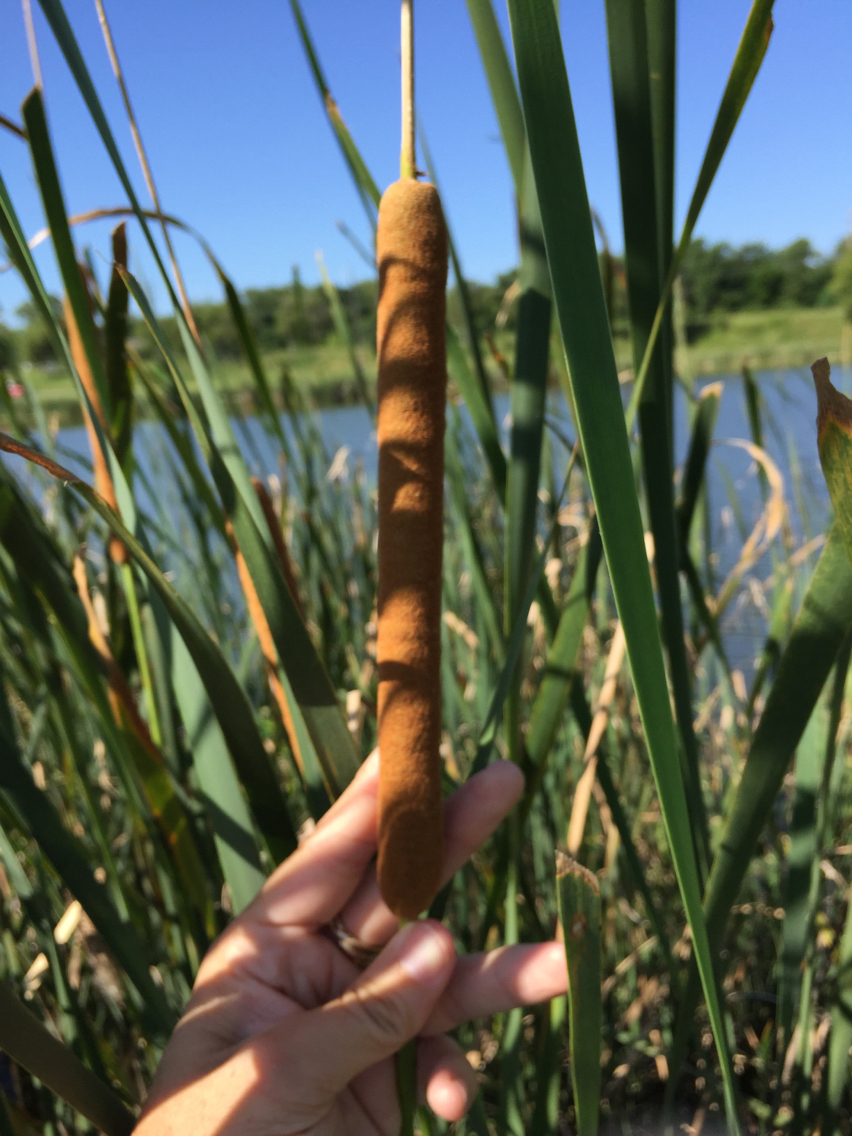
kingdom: Plantae
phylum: Tracheophyta
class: Liliopsida
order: Poales
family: Typhaceae
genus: Typha
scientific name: Typha domingensis
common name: Southern cattail
